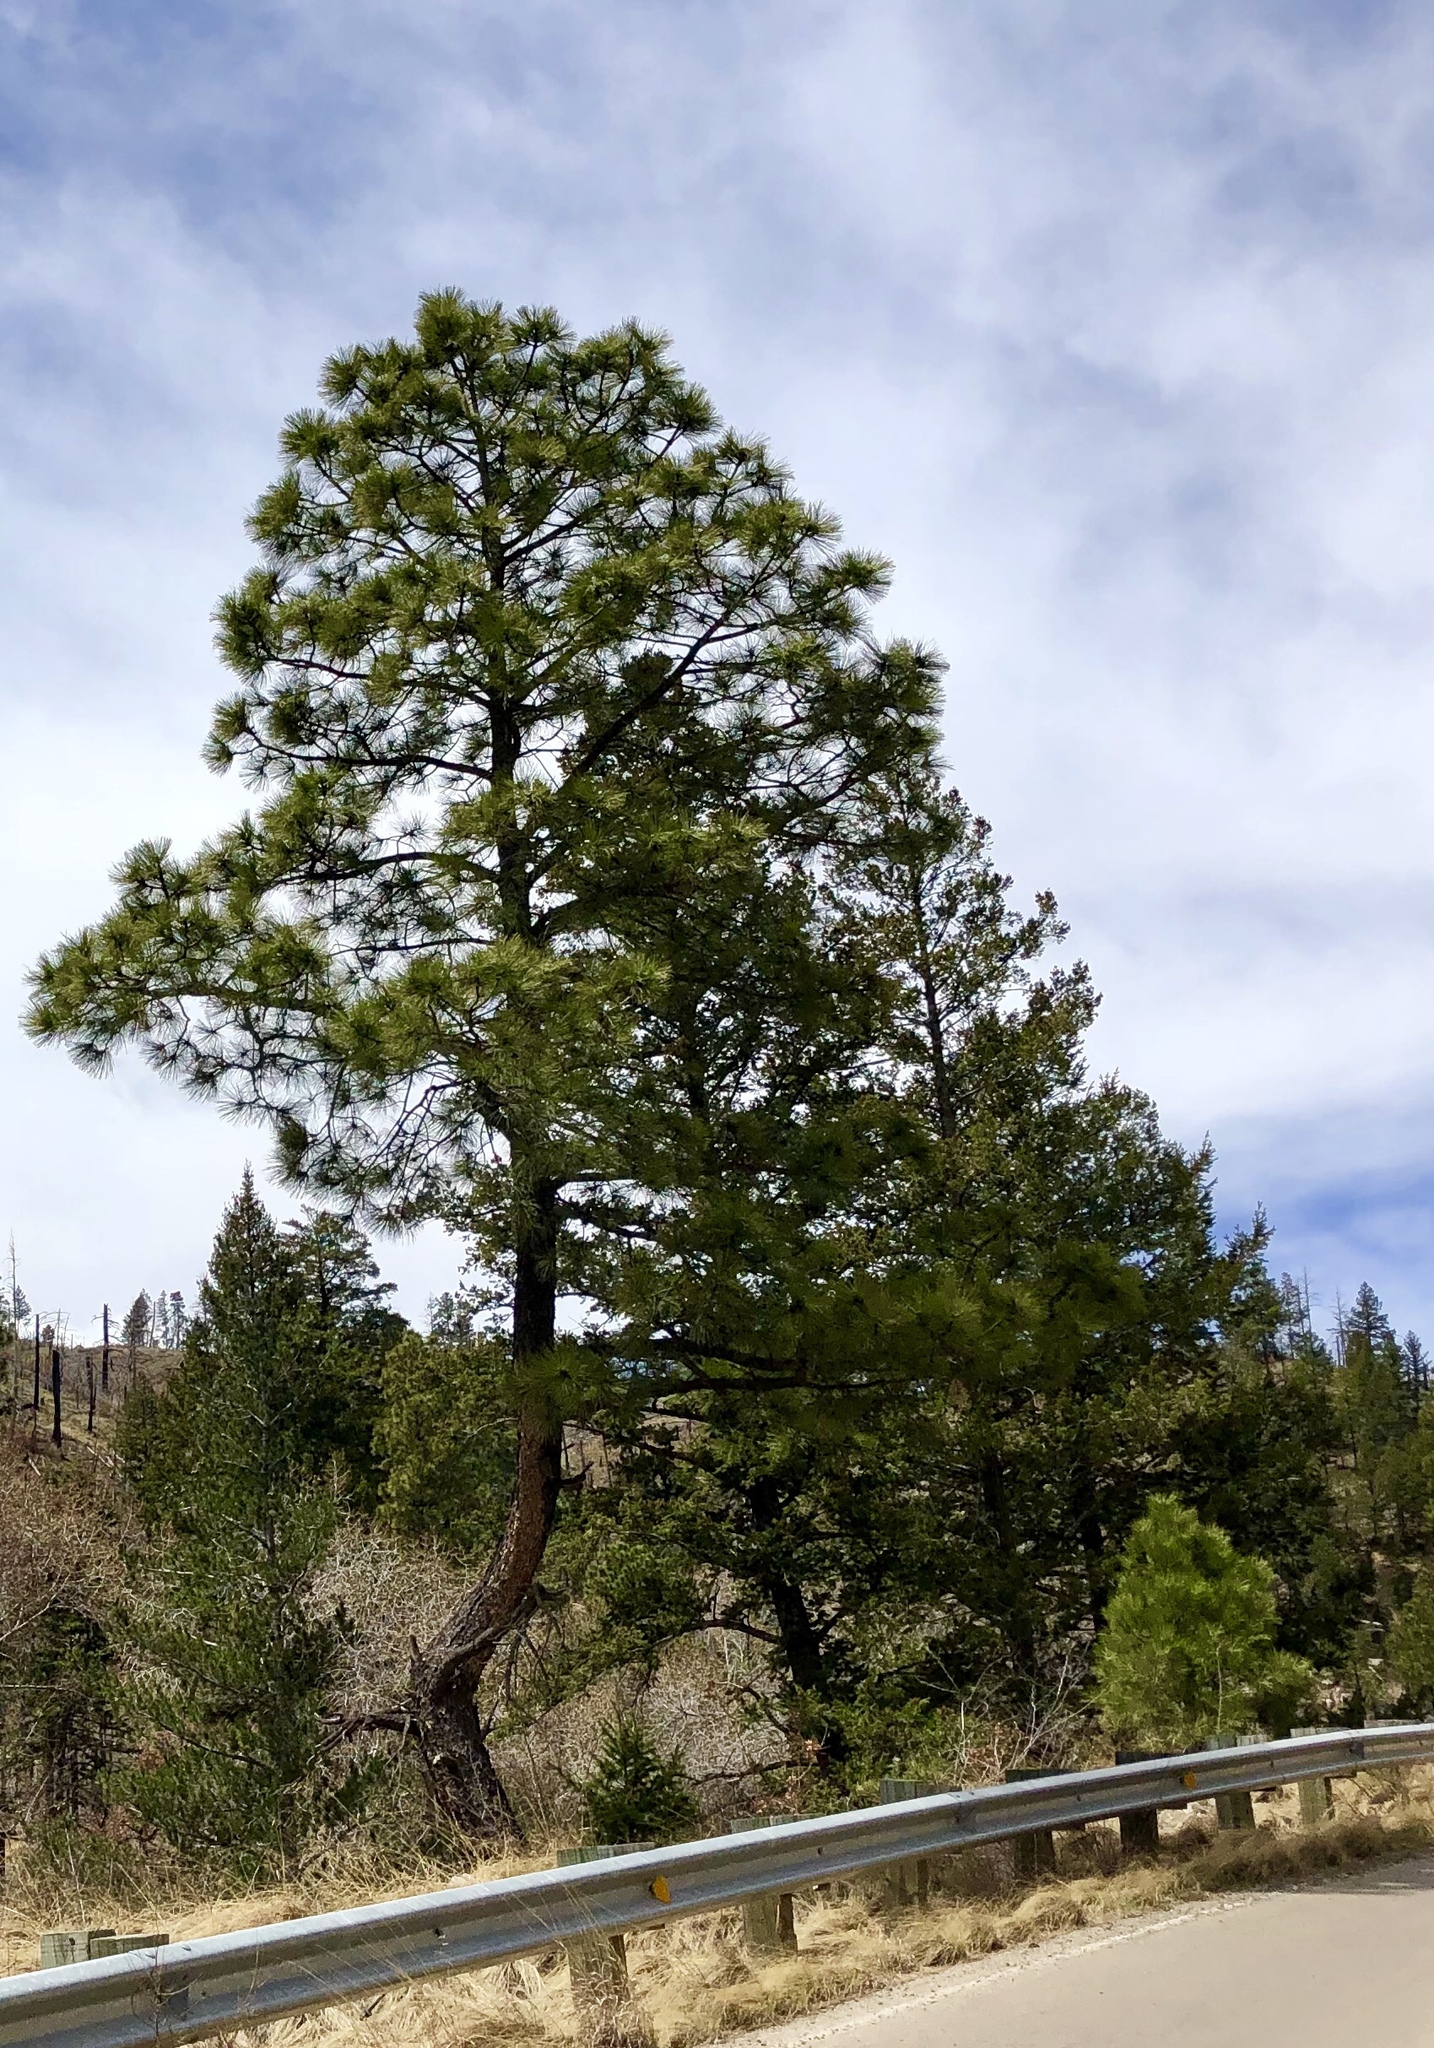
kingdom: Plantae
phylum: Tracheophyta
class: Pinopsida
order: Pinales
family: Pinaceae
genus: Pinus
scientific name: Pinus ponderosa
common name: Western yellow-pine
